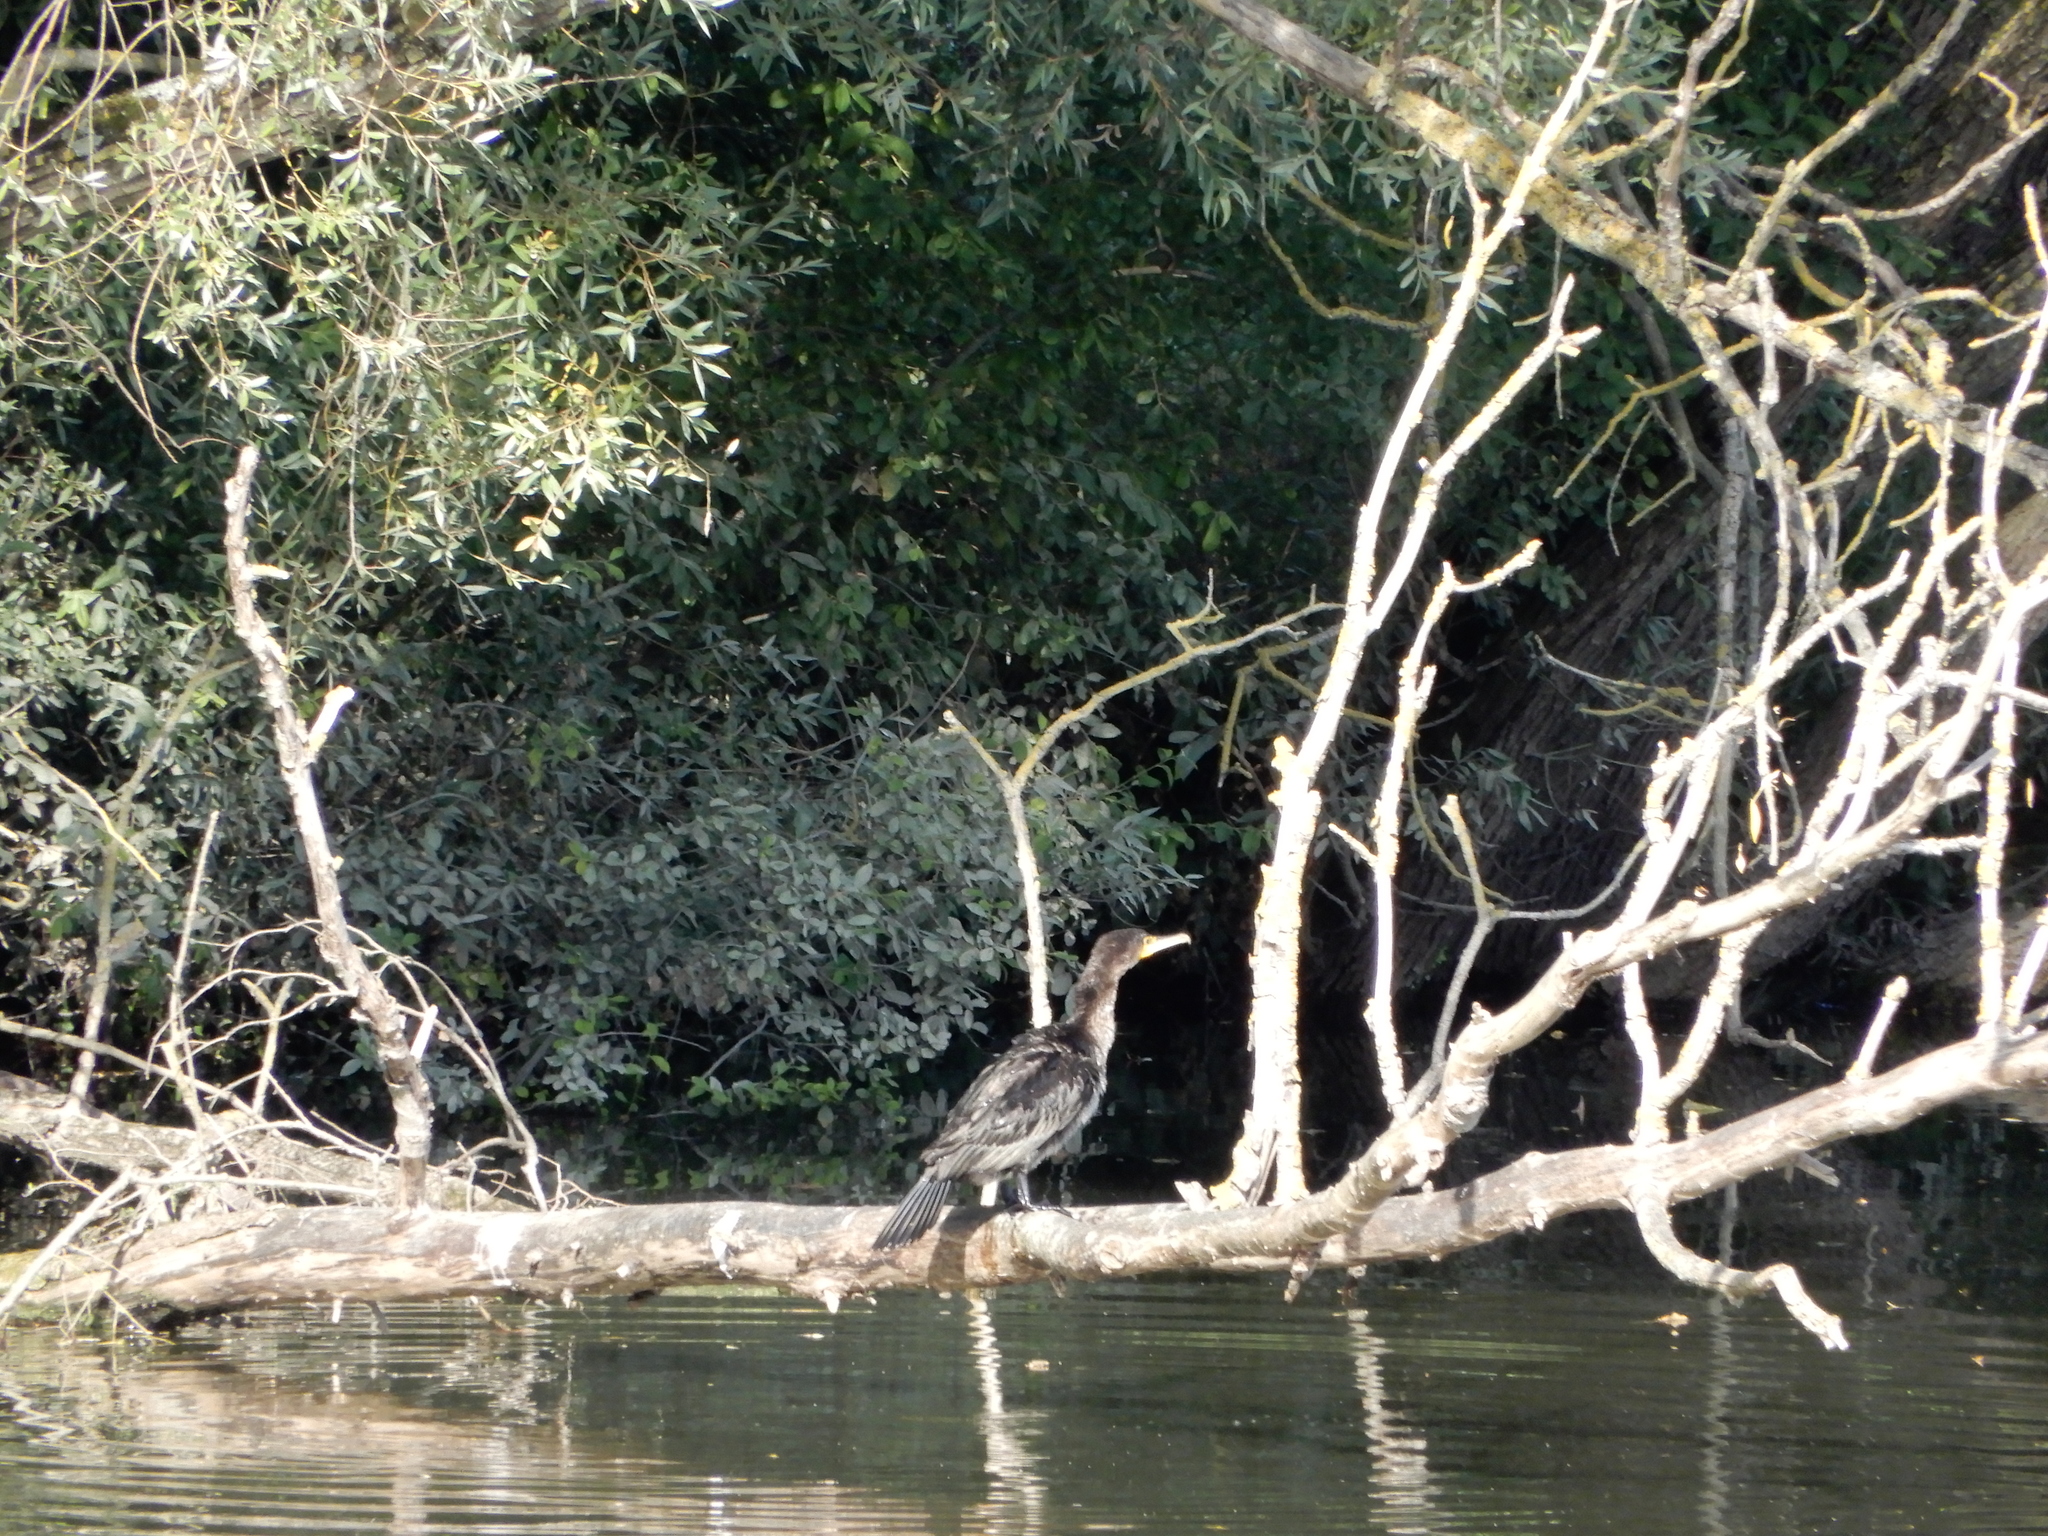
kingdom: Animalia
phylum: Chordata
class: Aves
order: Suliformes
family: Phalacrocoracidae
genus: Phalacrocorax
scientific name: Phalacrocorax carbo
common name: Great cormorant
